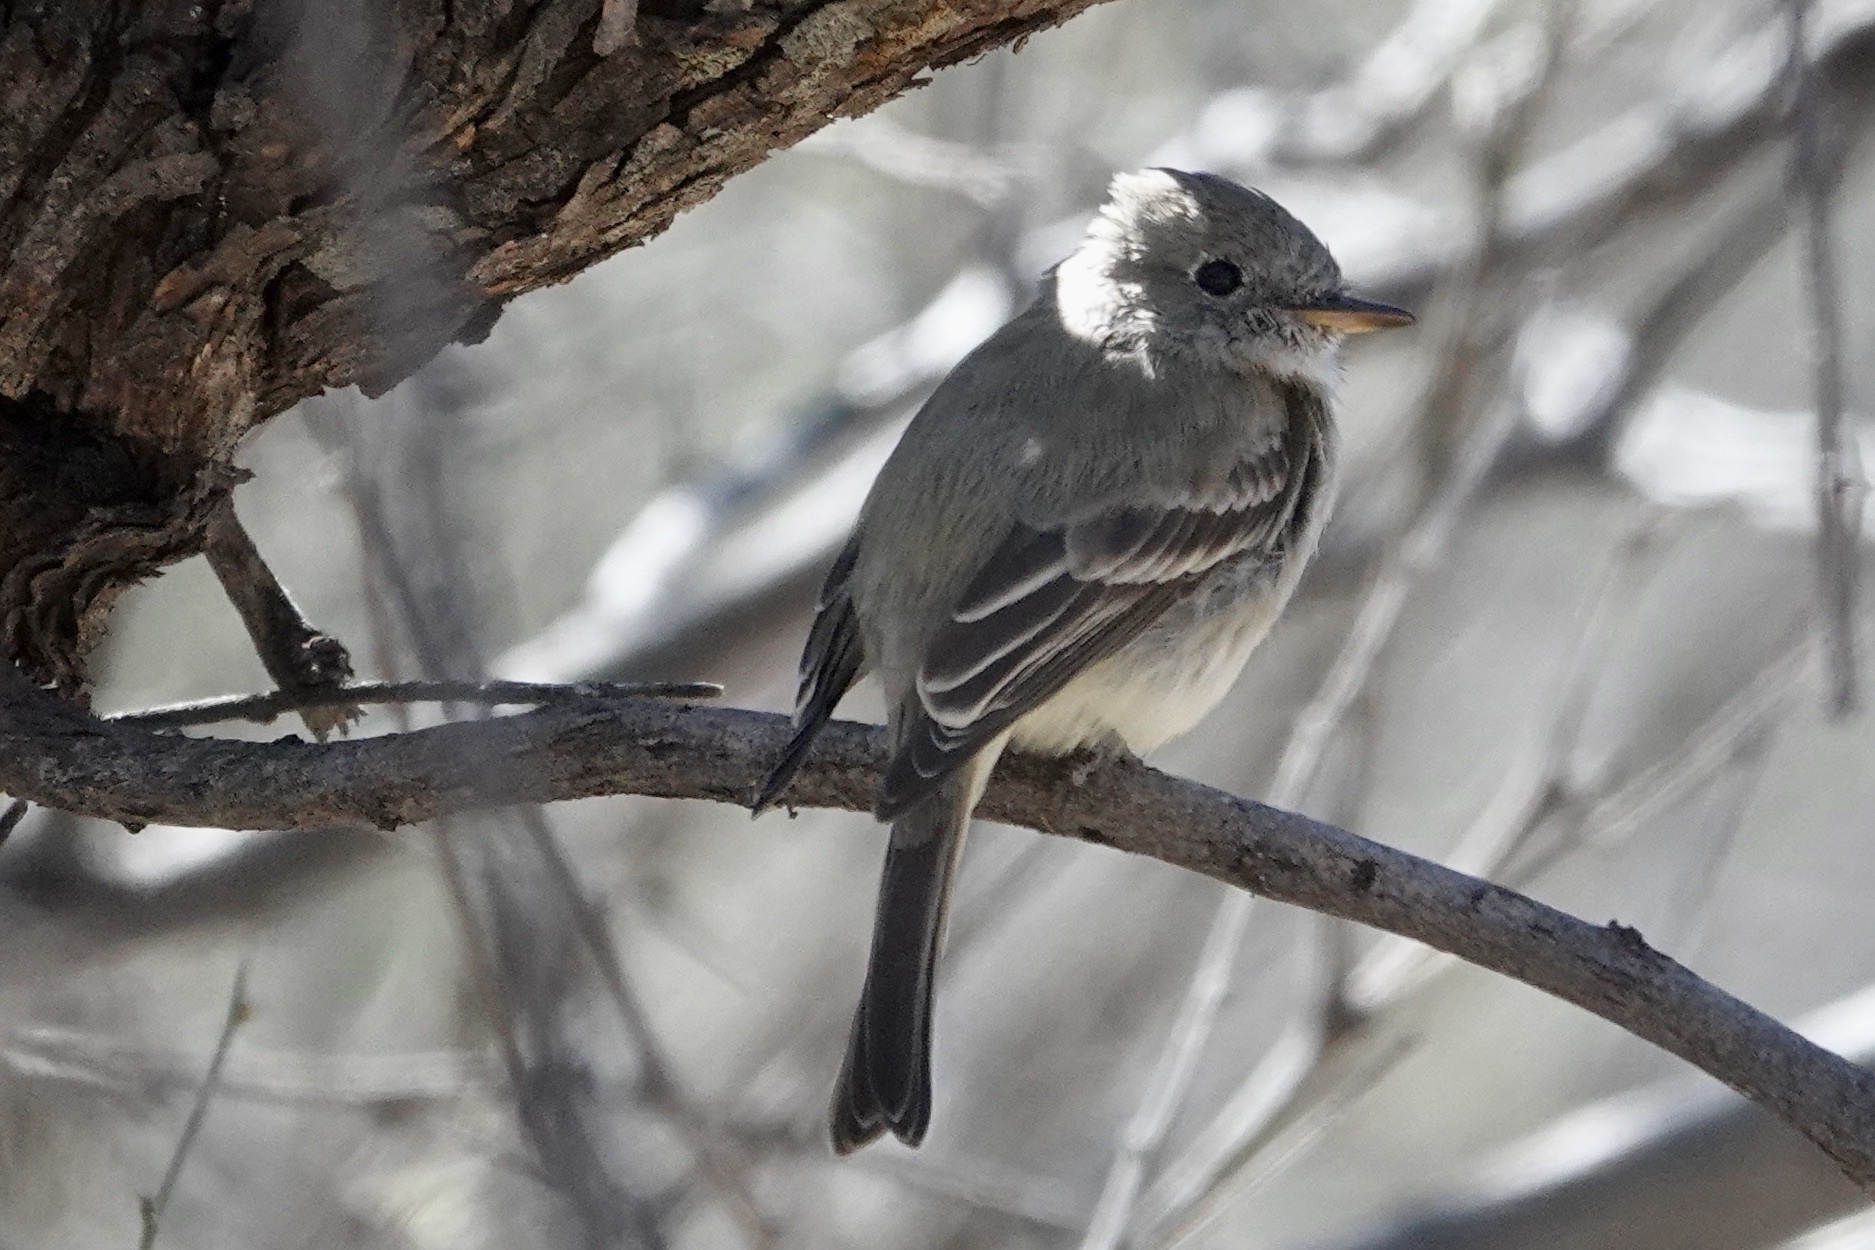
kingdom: Animalia
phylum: Chordata
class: Aves
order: Passeriformes
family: Tyrannidae
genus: Empidonax
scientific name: Empidonax wrightii
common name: Gray flycatcher
